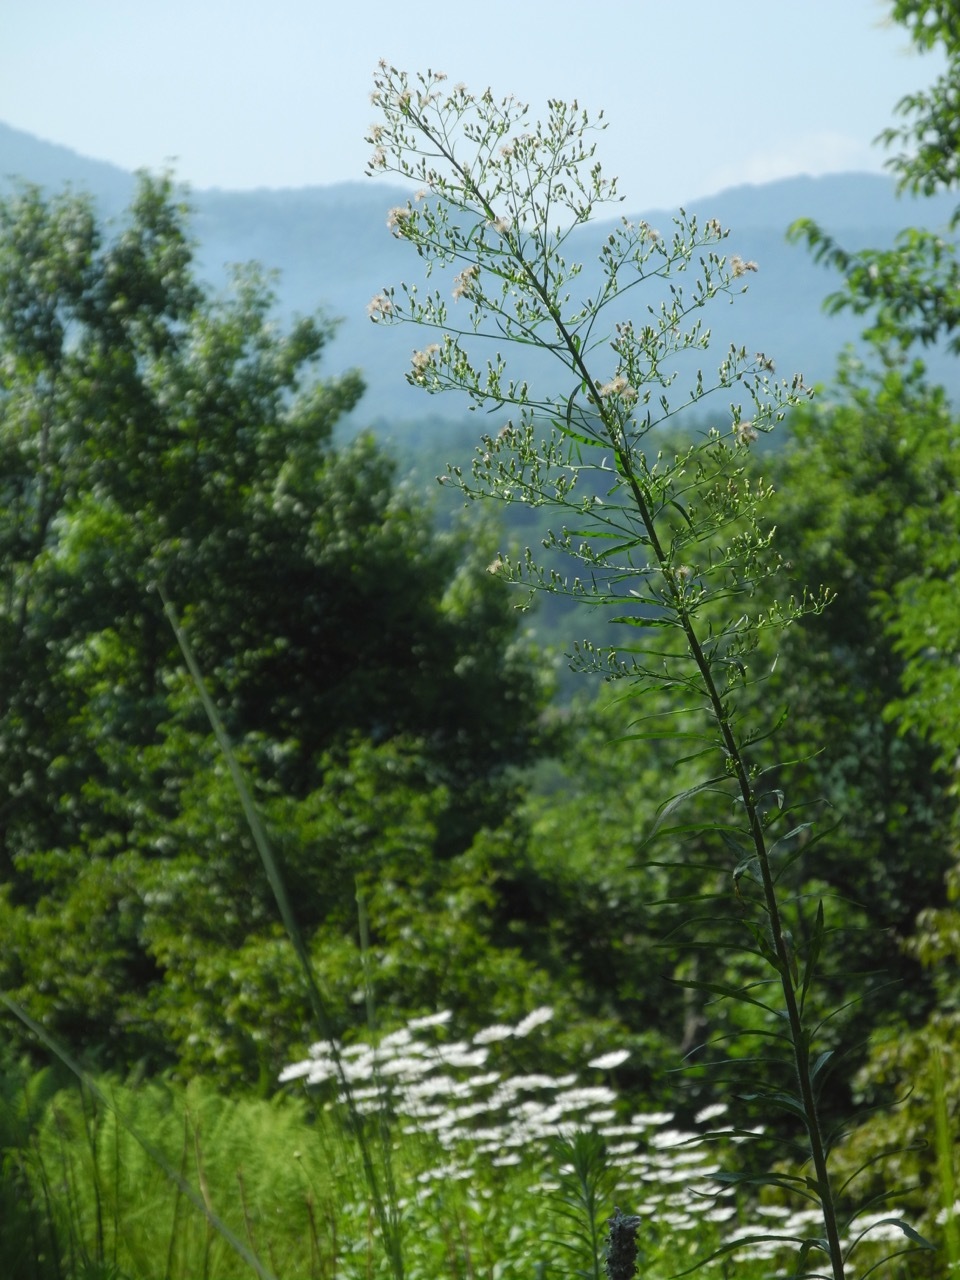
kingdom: Plantae
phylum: Tracheophyta
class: Magnoliopsida
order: Asterales
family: Asteraceae
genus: Erigeron
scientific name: Erigeron canadensis
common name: Canadian fleabane
